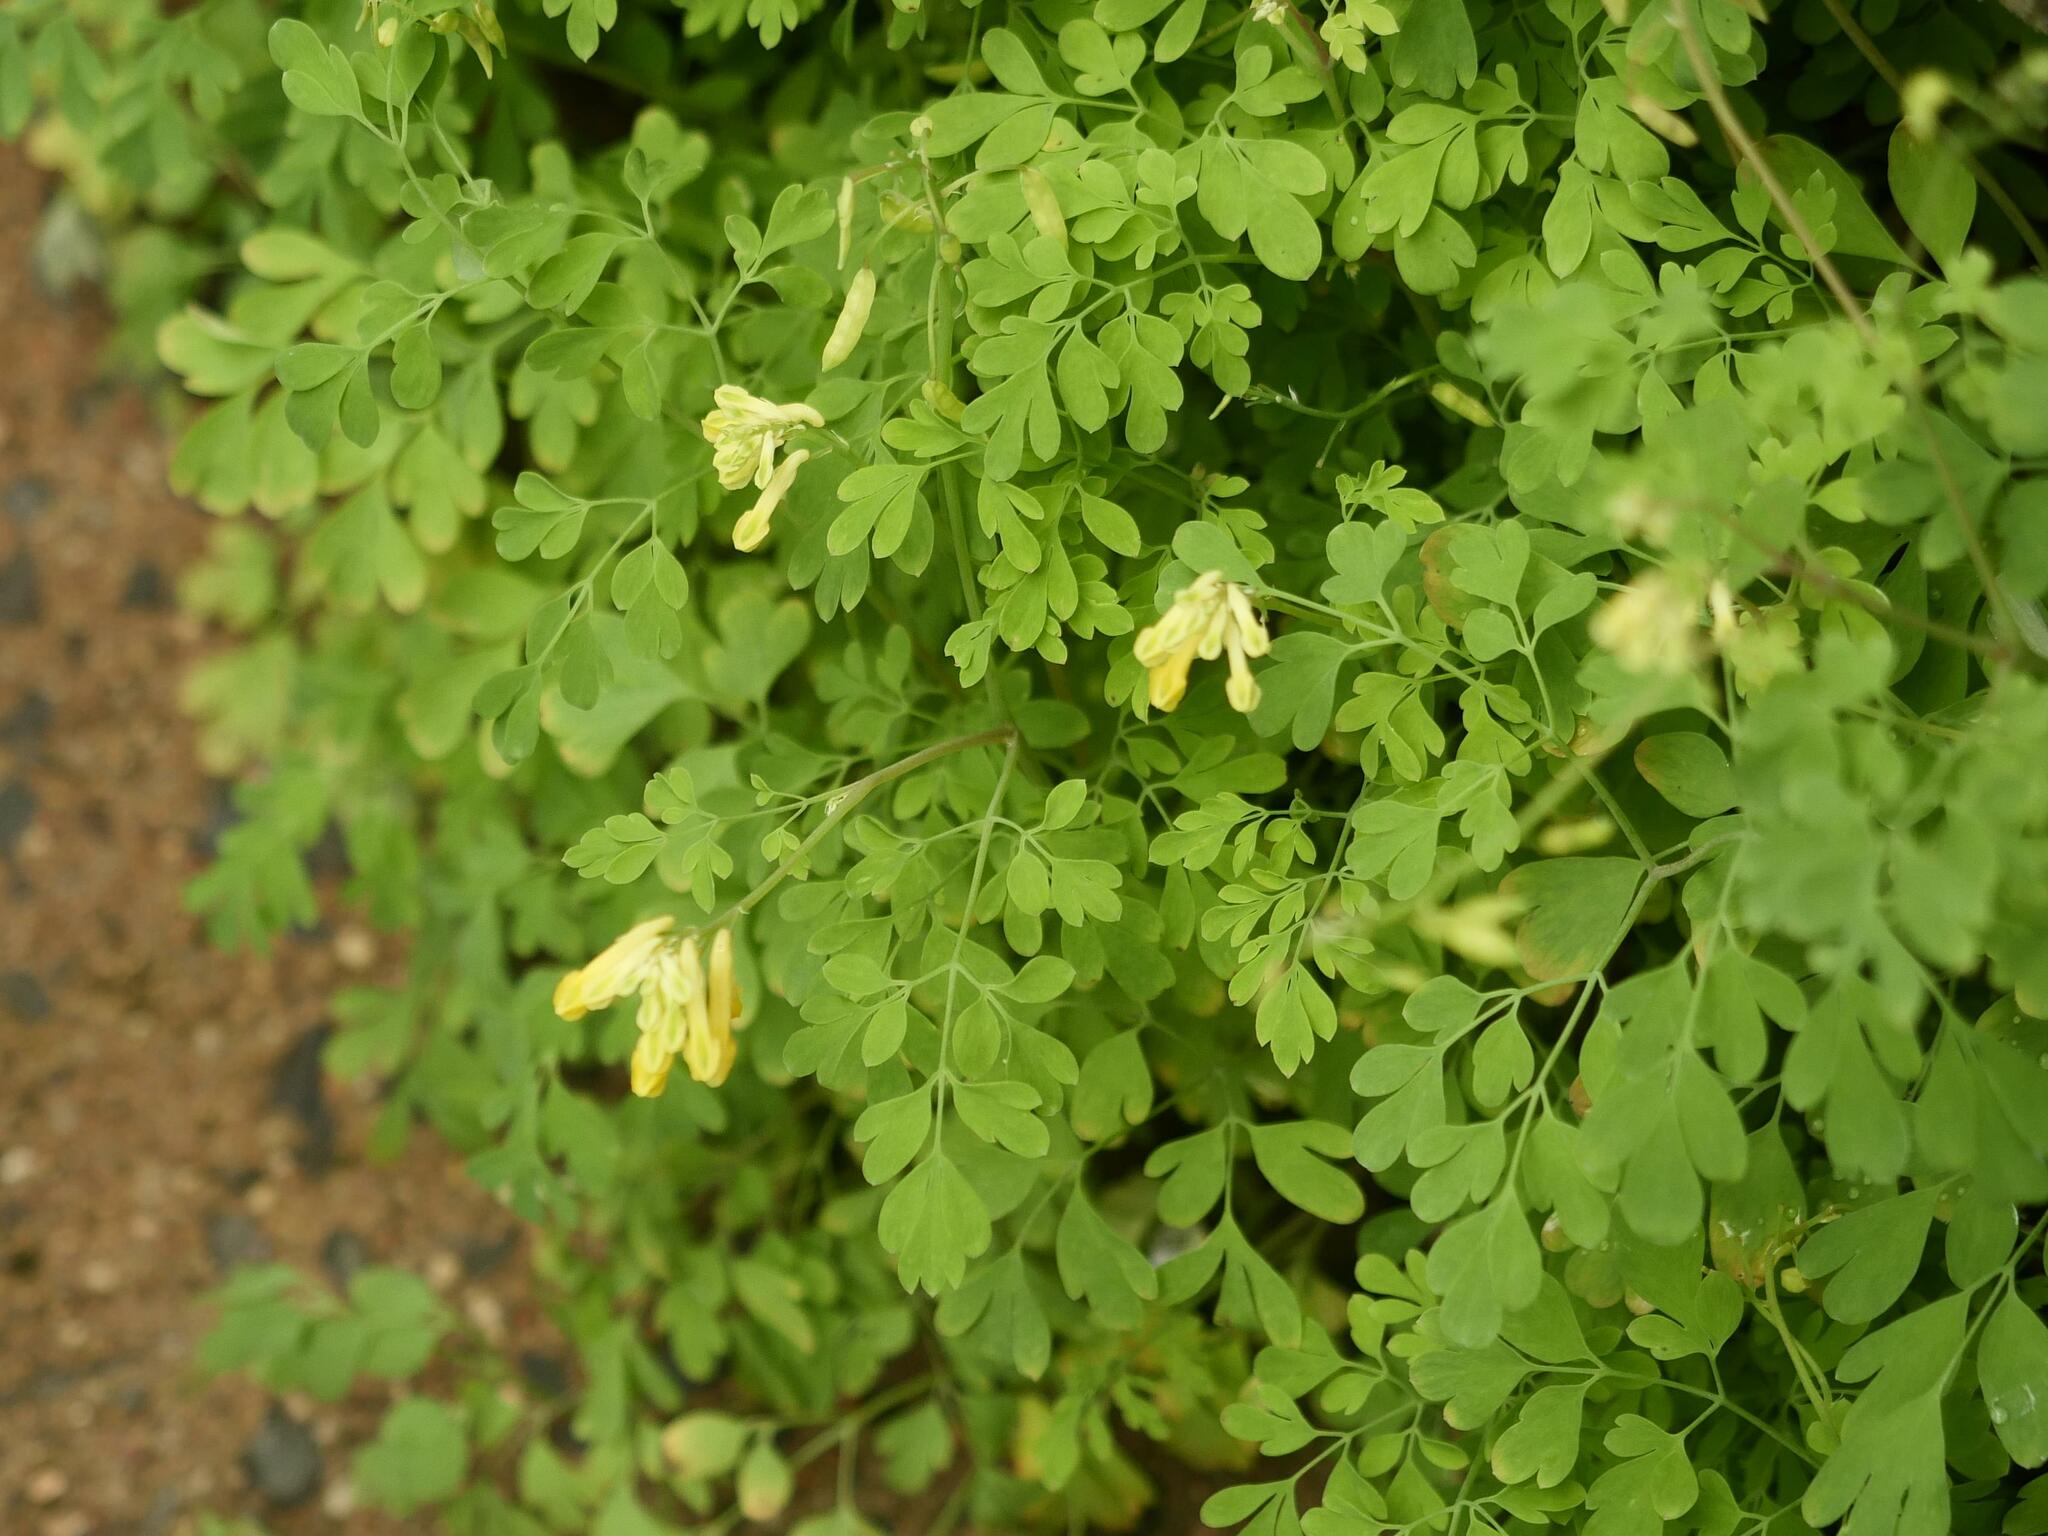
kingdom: Plantae
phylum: Tracheophyta
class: Magnoliopsida
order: Ranunculales
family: Papaveraceae
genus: Pseudofumaria
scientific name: Pseudofumaria lutea
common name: Yellow corydalis
